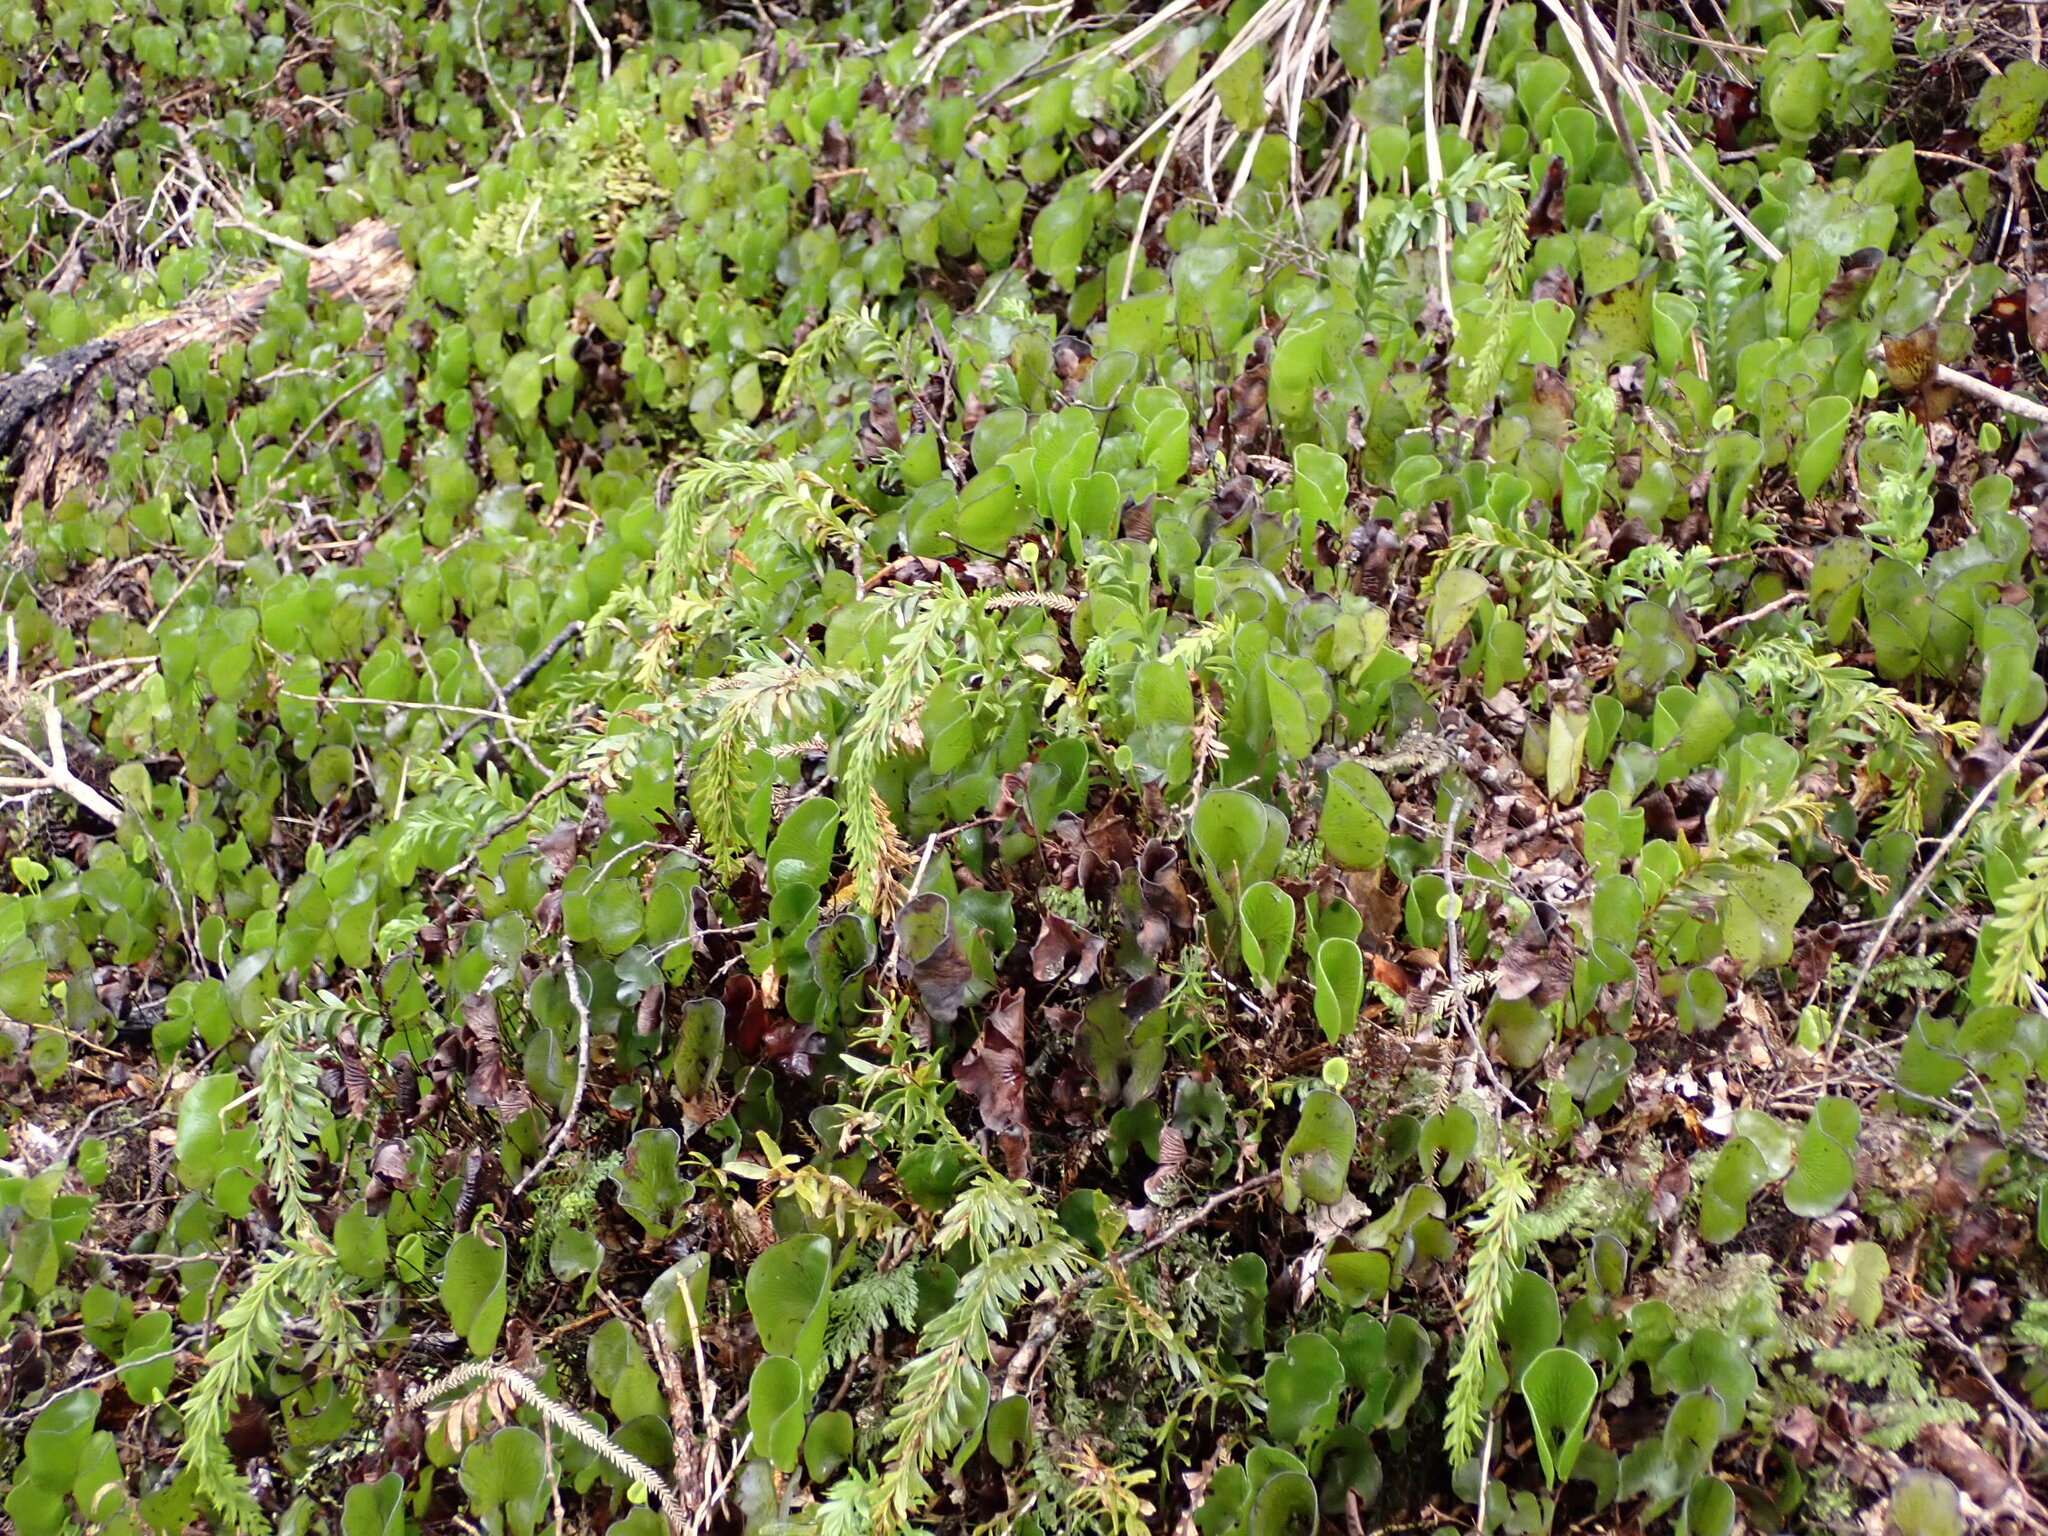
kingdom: Plantae
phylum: Tracheophyta
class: Polypodiopsida
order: Psilotales
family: Psilotaceae
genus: Tmesipteris
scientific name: Tmesipteris tannensis
